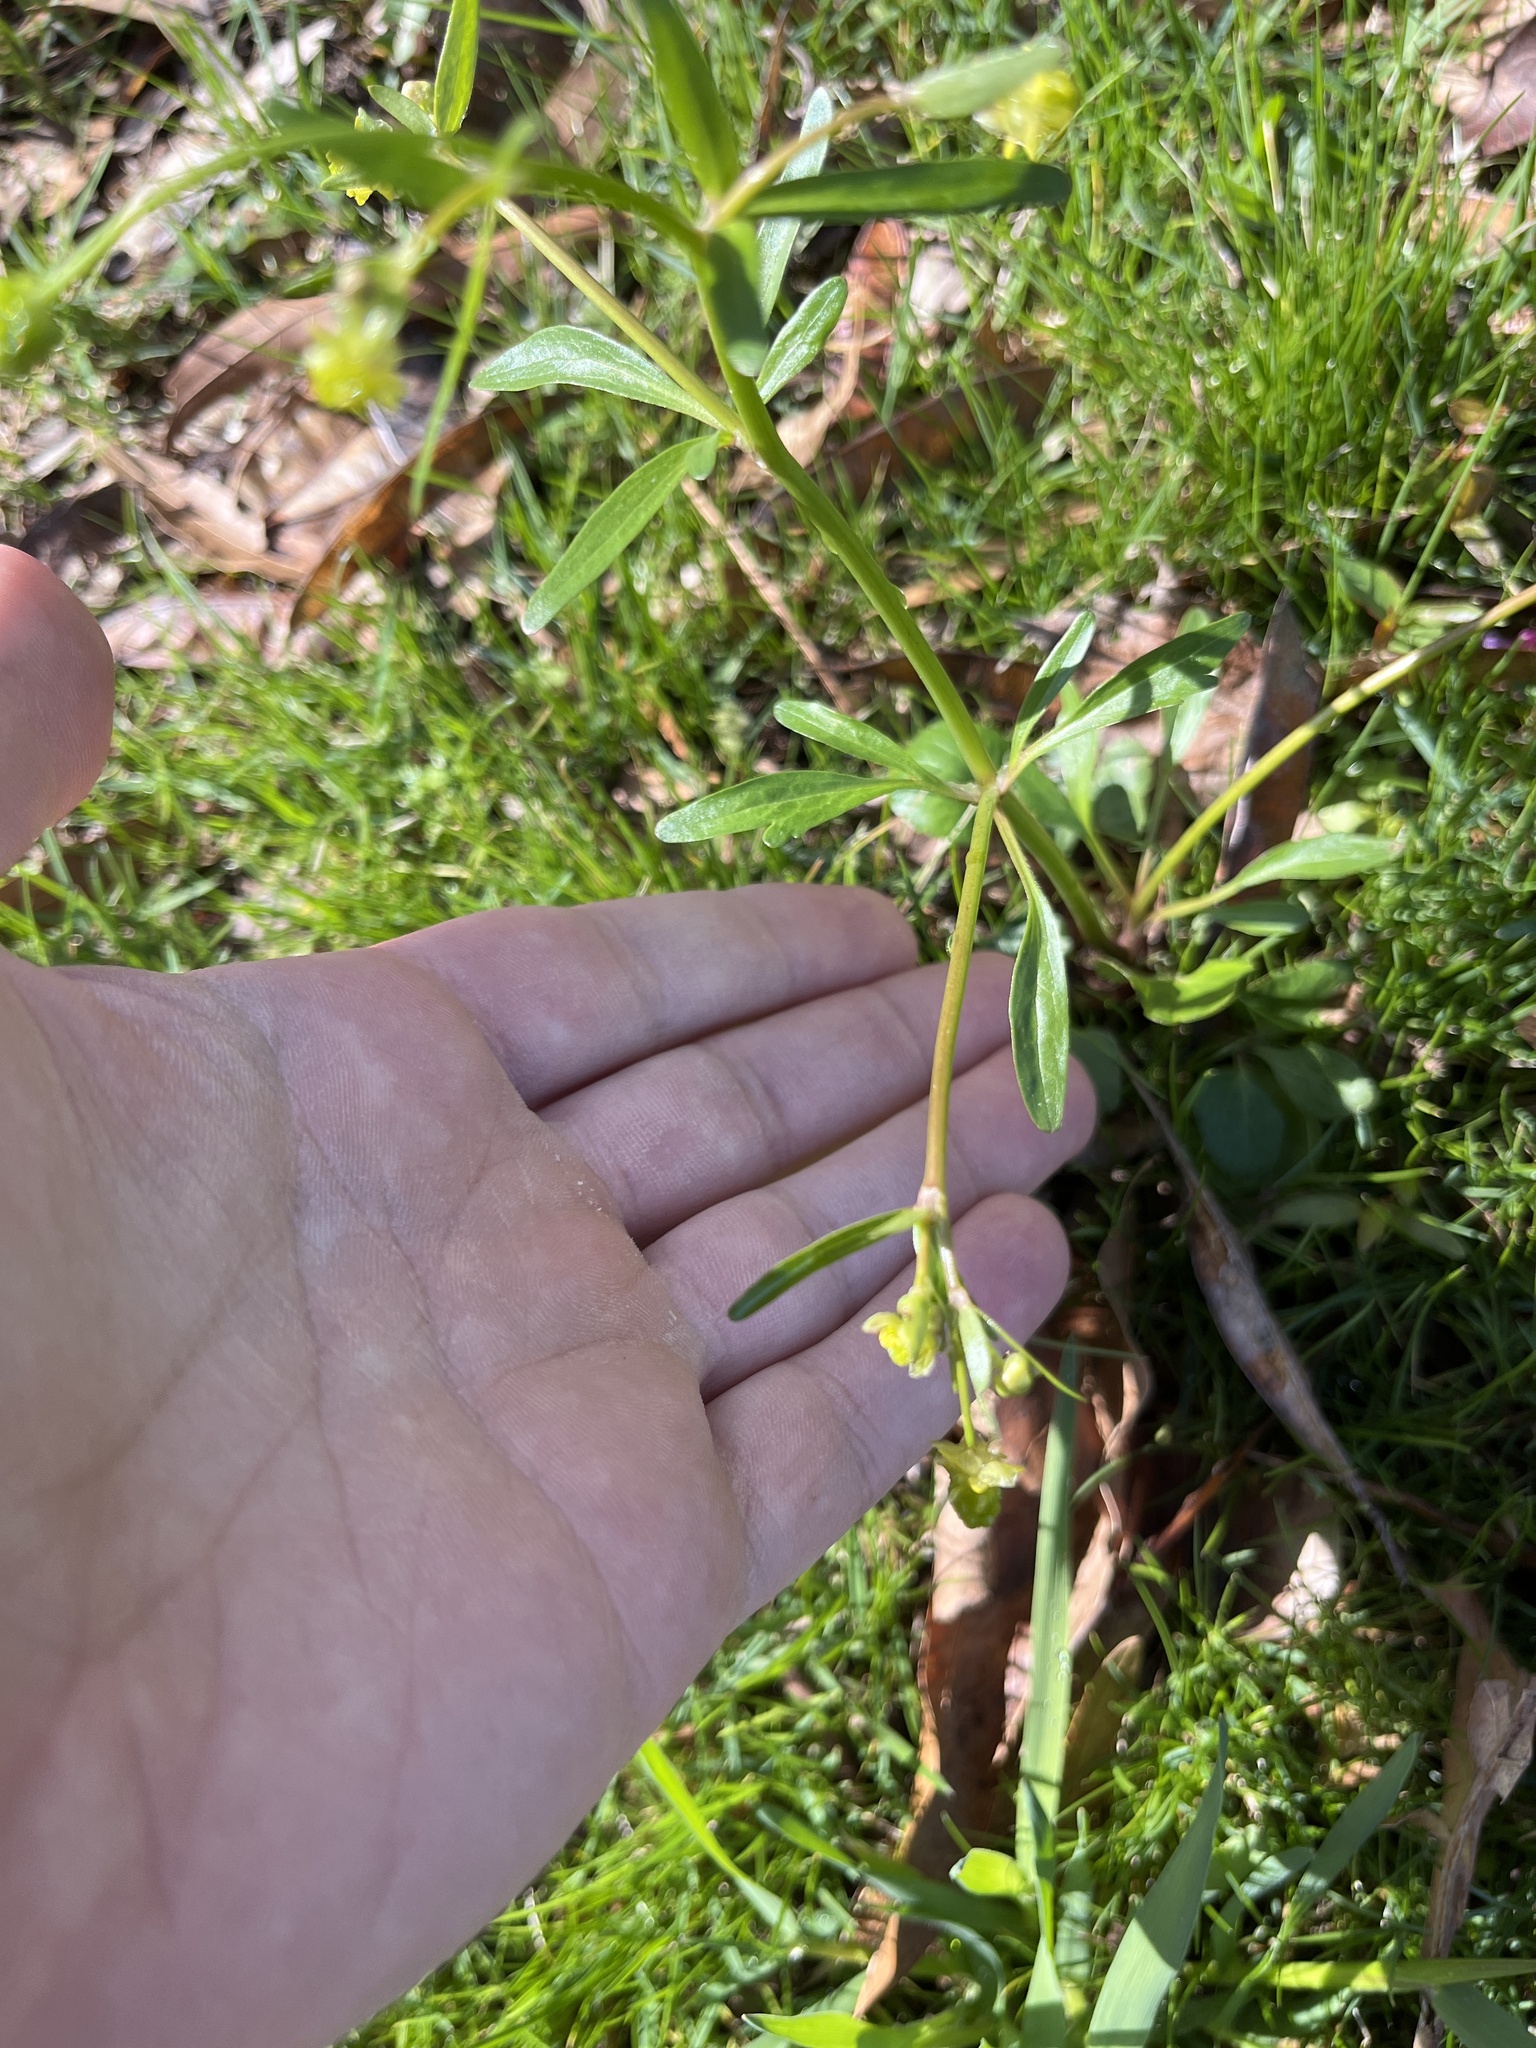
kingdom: Plantae
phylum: Tracheophyta
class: Magnoliopsida
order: Ranunculales
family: Ranunculaceae
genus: Ranunculus
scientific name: Ranunculus abortivus
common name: Early wood buttercup
